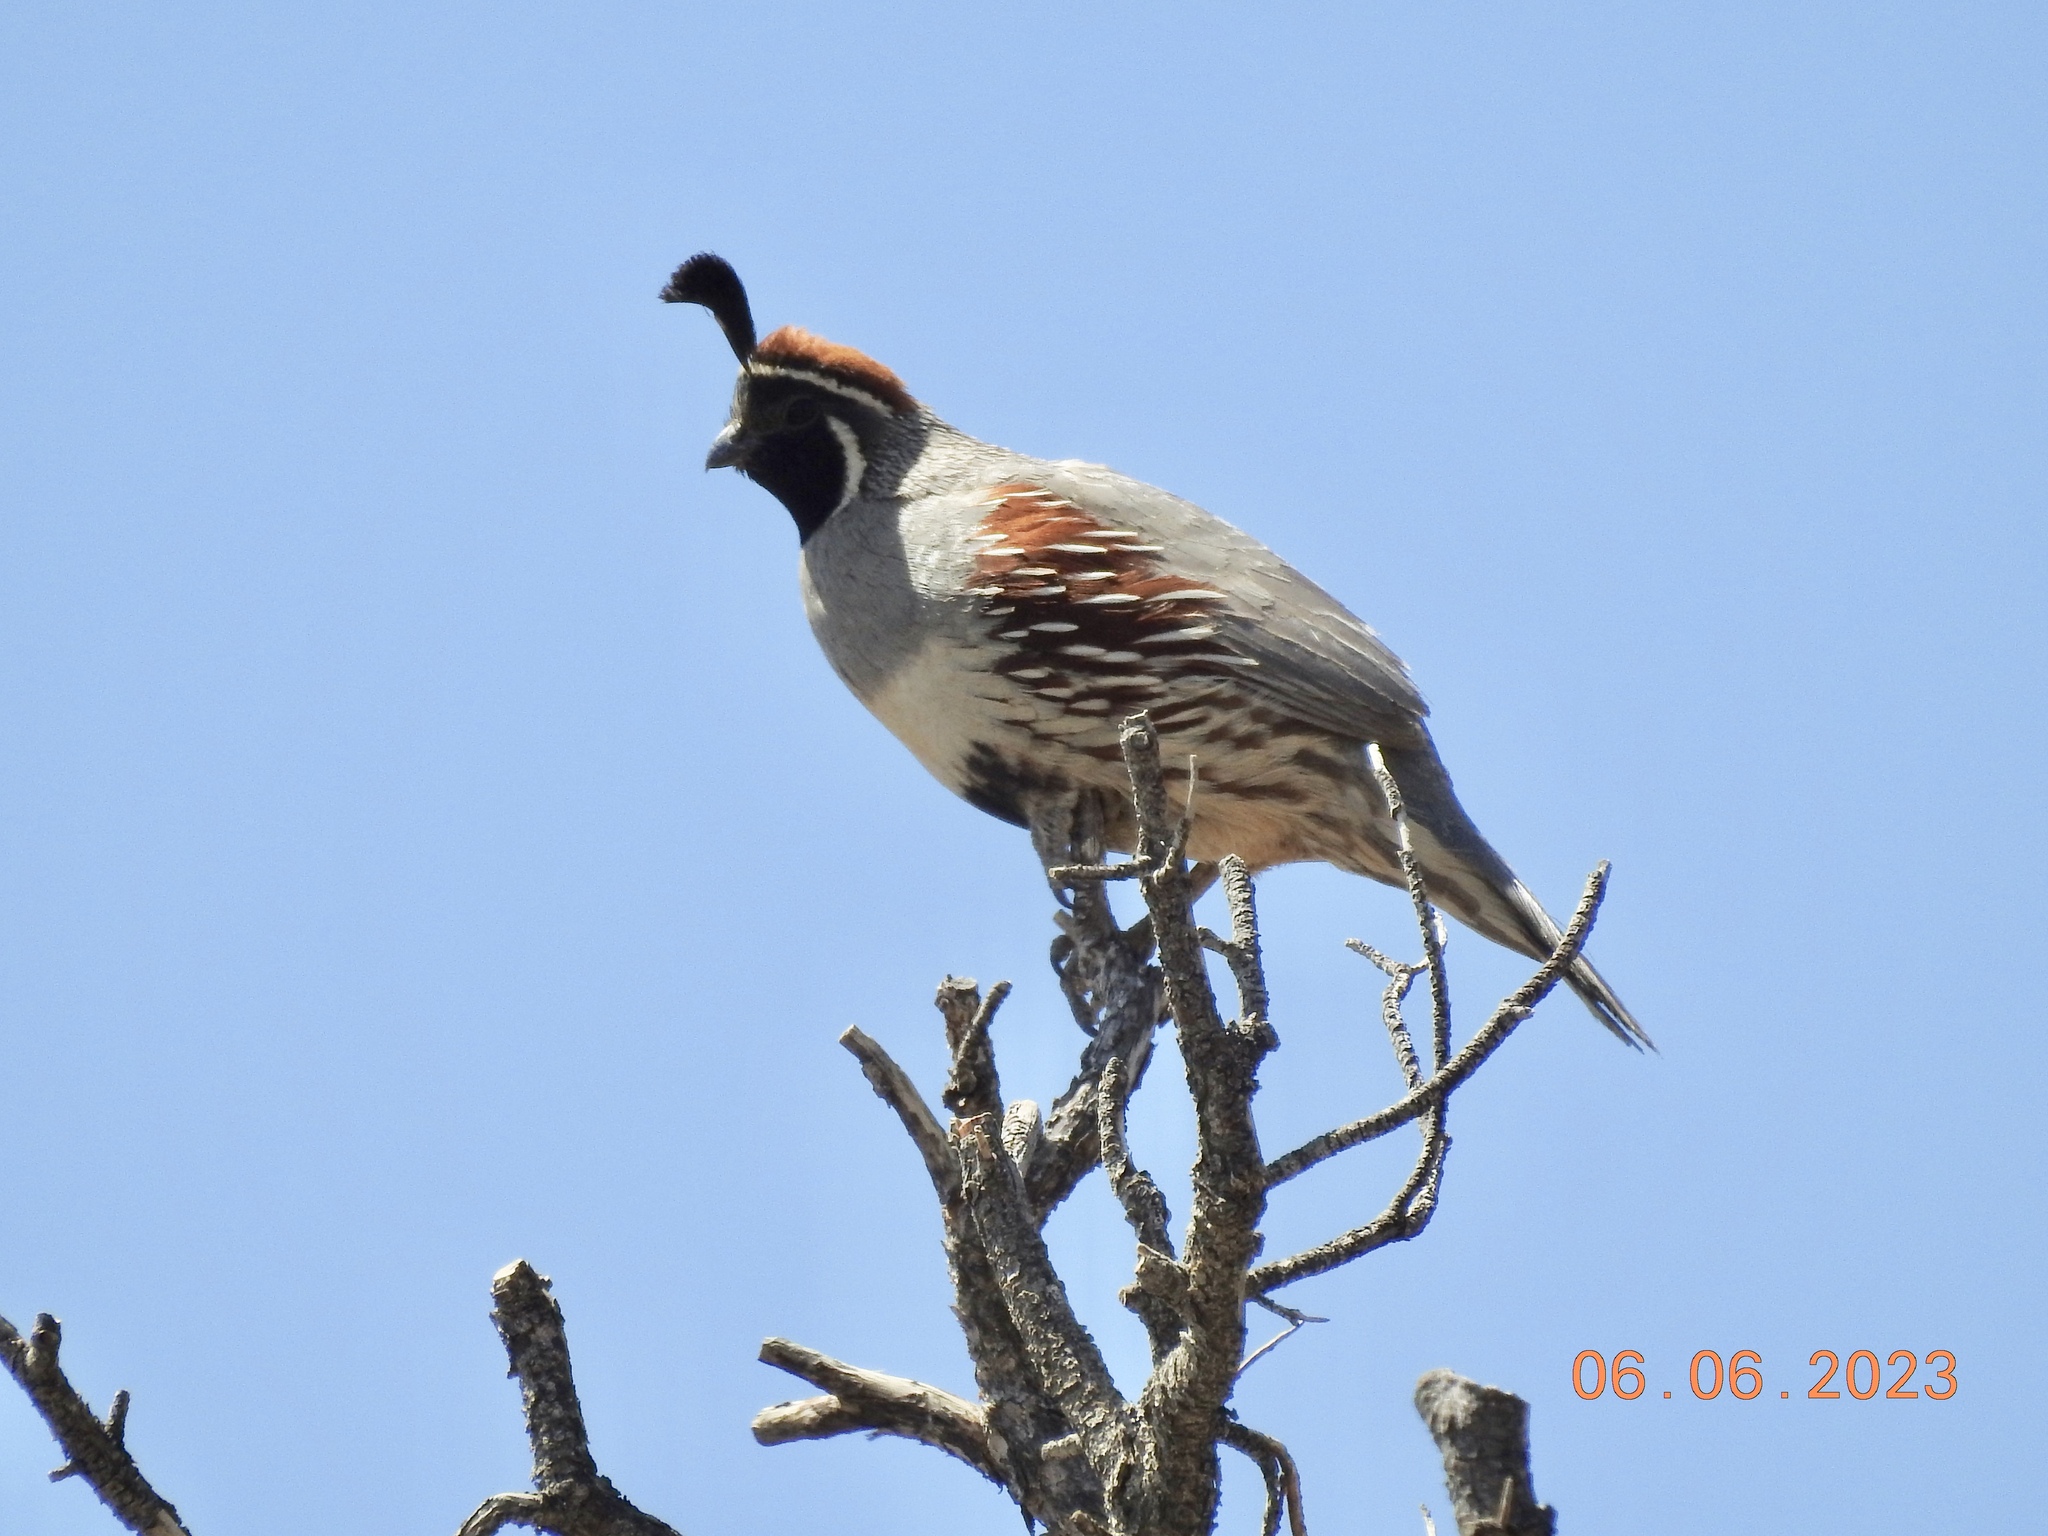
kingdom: Animalia
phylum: Chordata
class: Aves
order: Galliformes
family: Odontophoridae
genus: Callipepla
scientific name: Callipepla gambelii
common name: Gambel's quail
